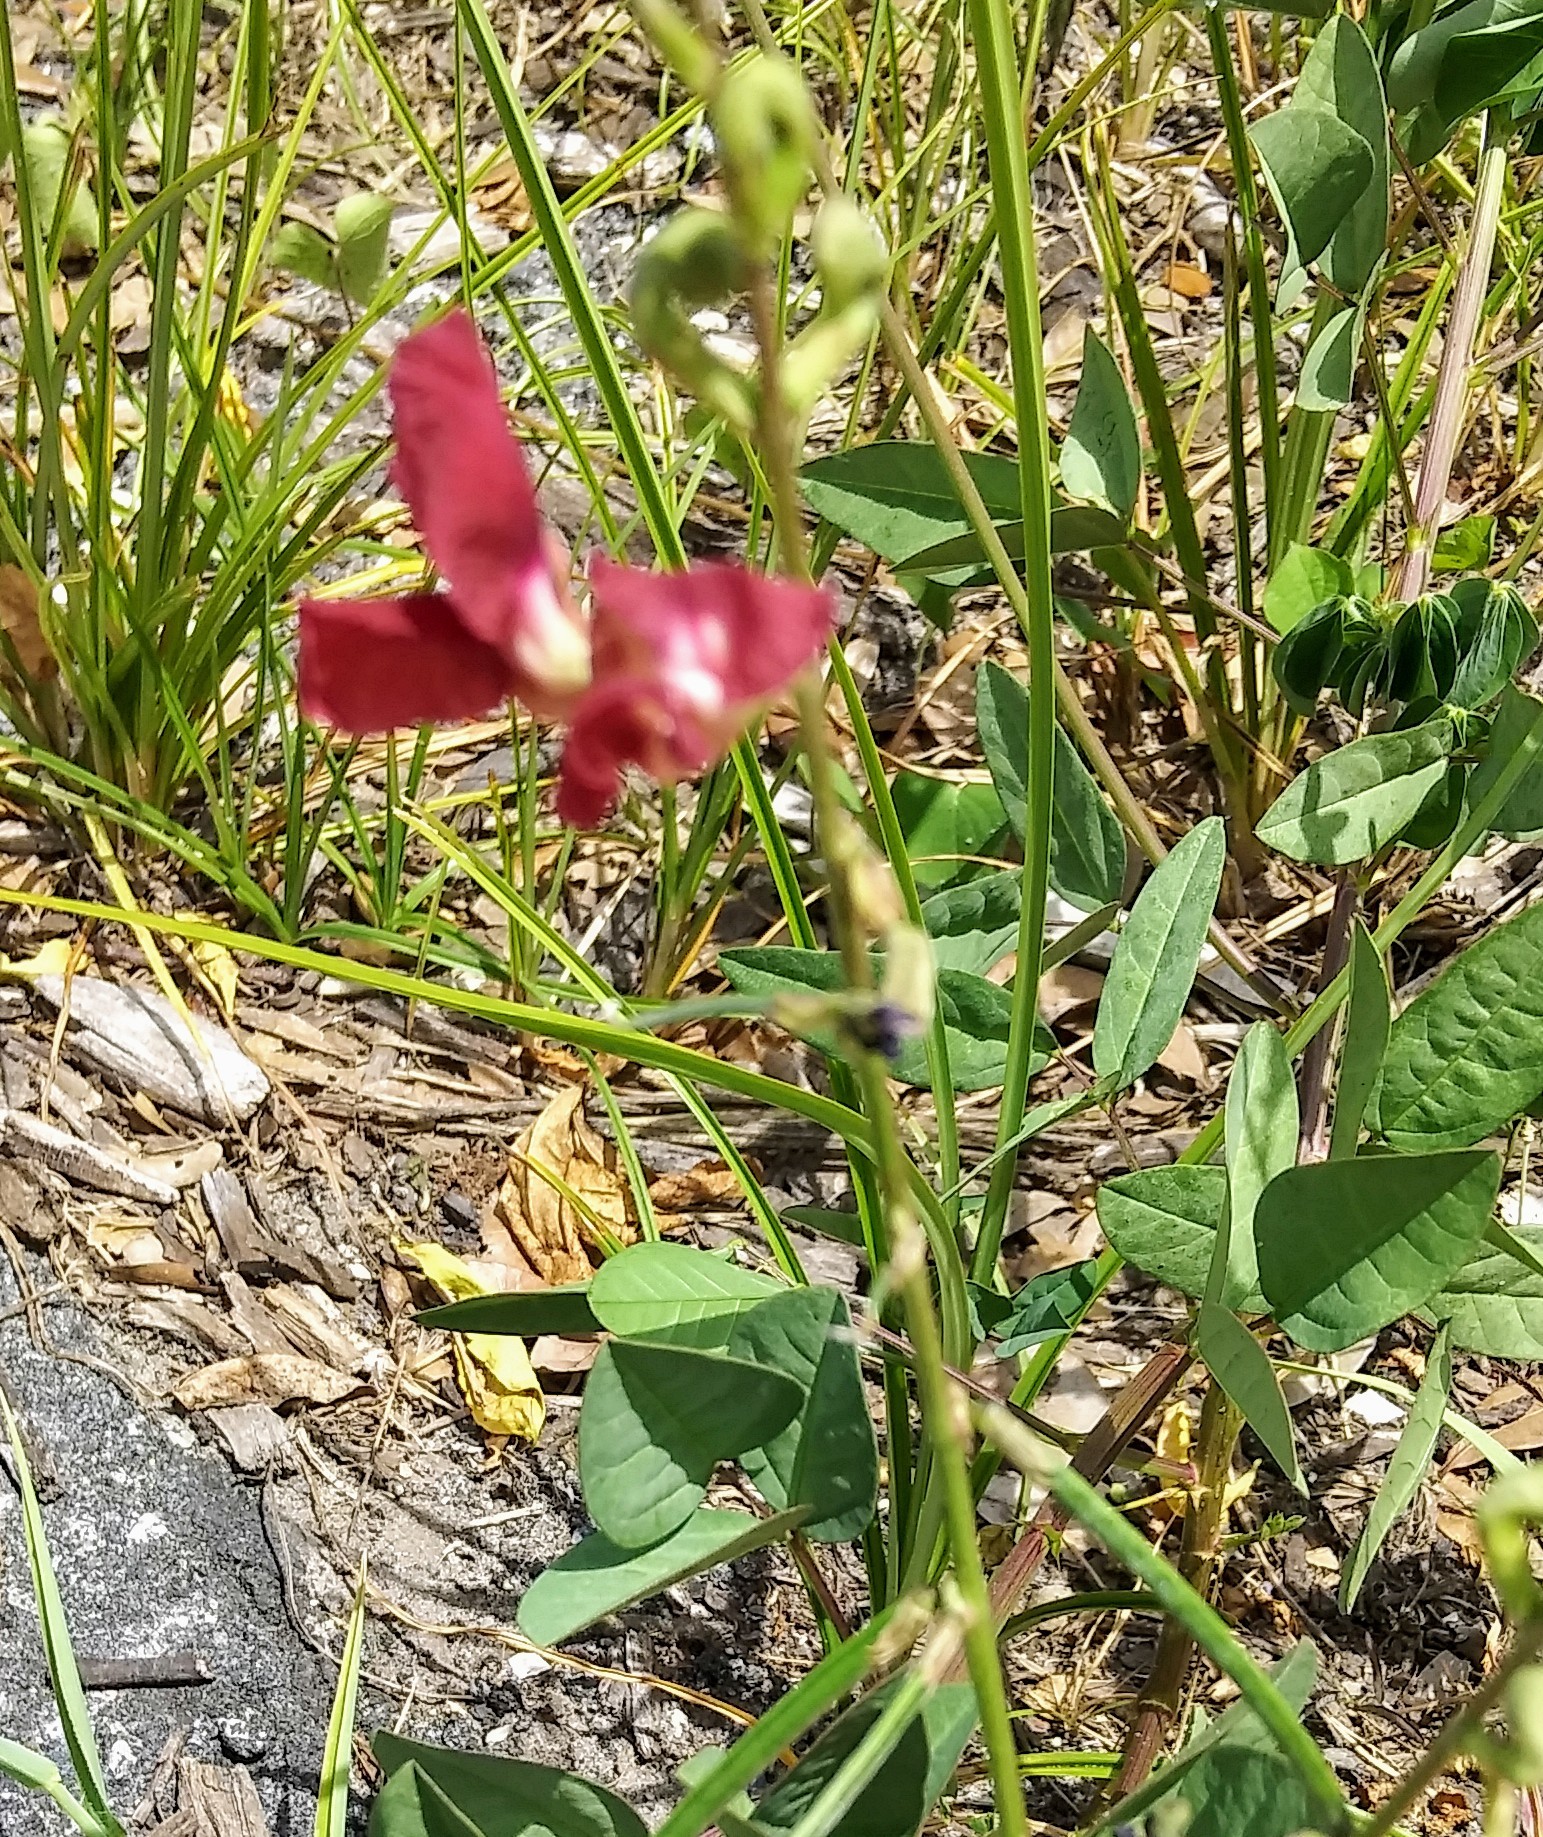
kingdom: Plantae
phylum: Tracheophyta
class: Magnoliopsida
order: Fabales
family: Fabaceae
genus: Macroptilium
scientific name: Macroptilium lathyroides
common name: Wild bushbean
